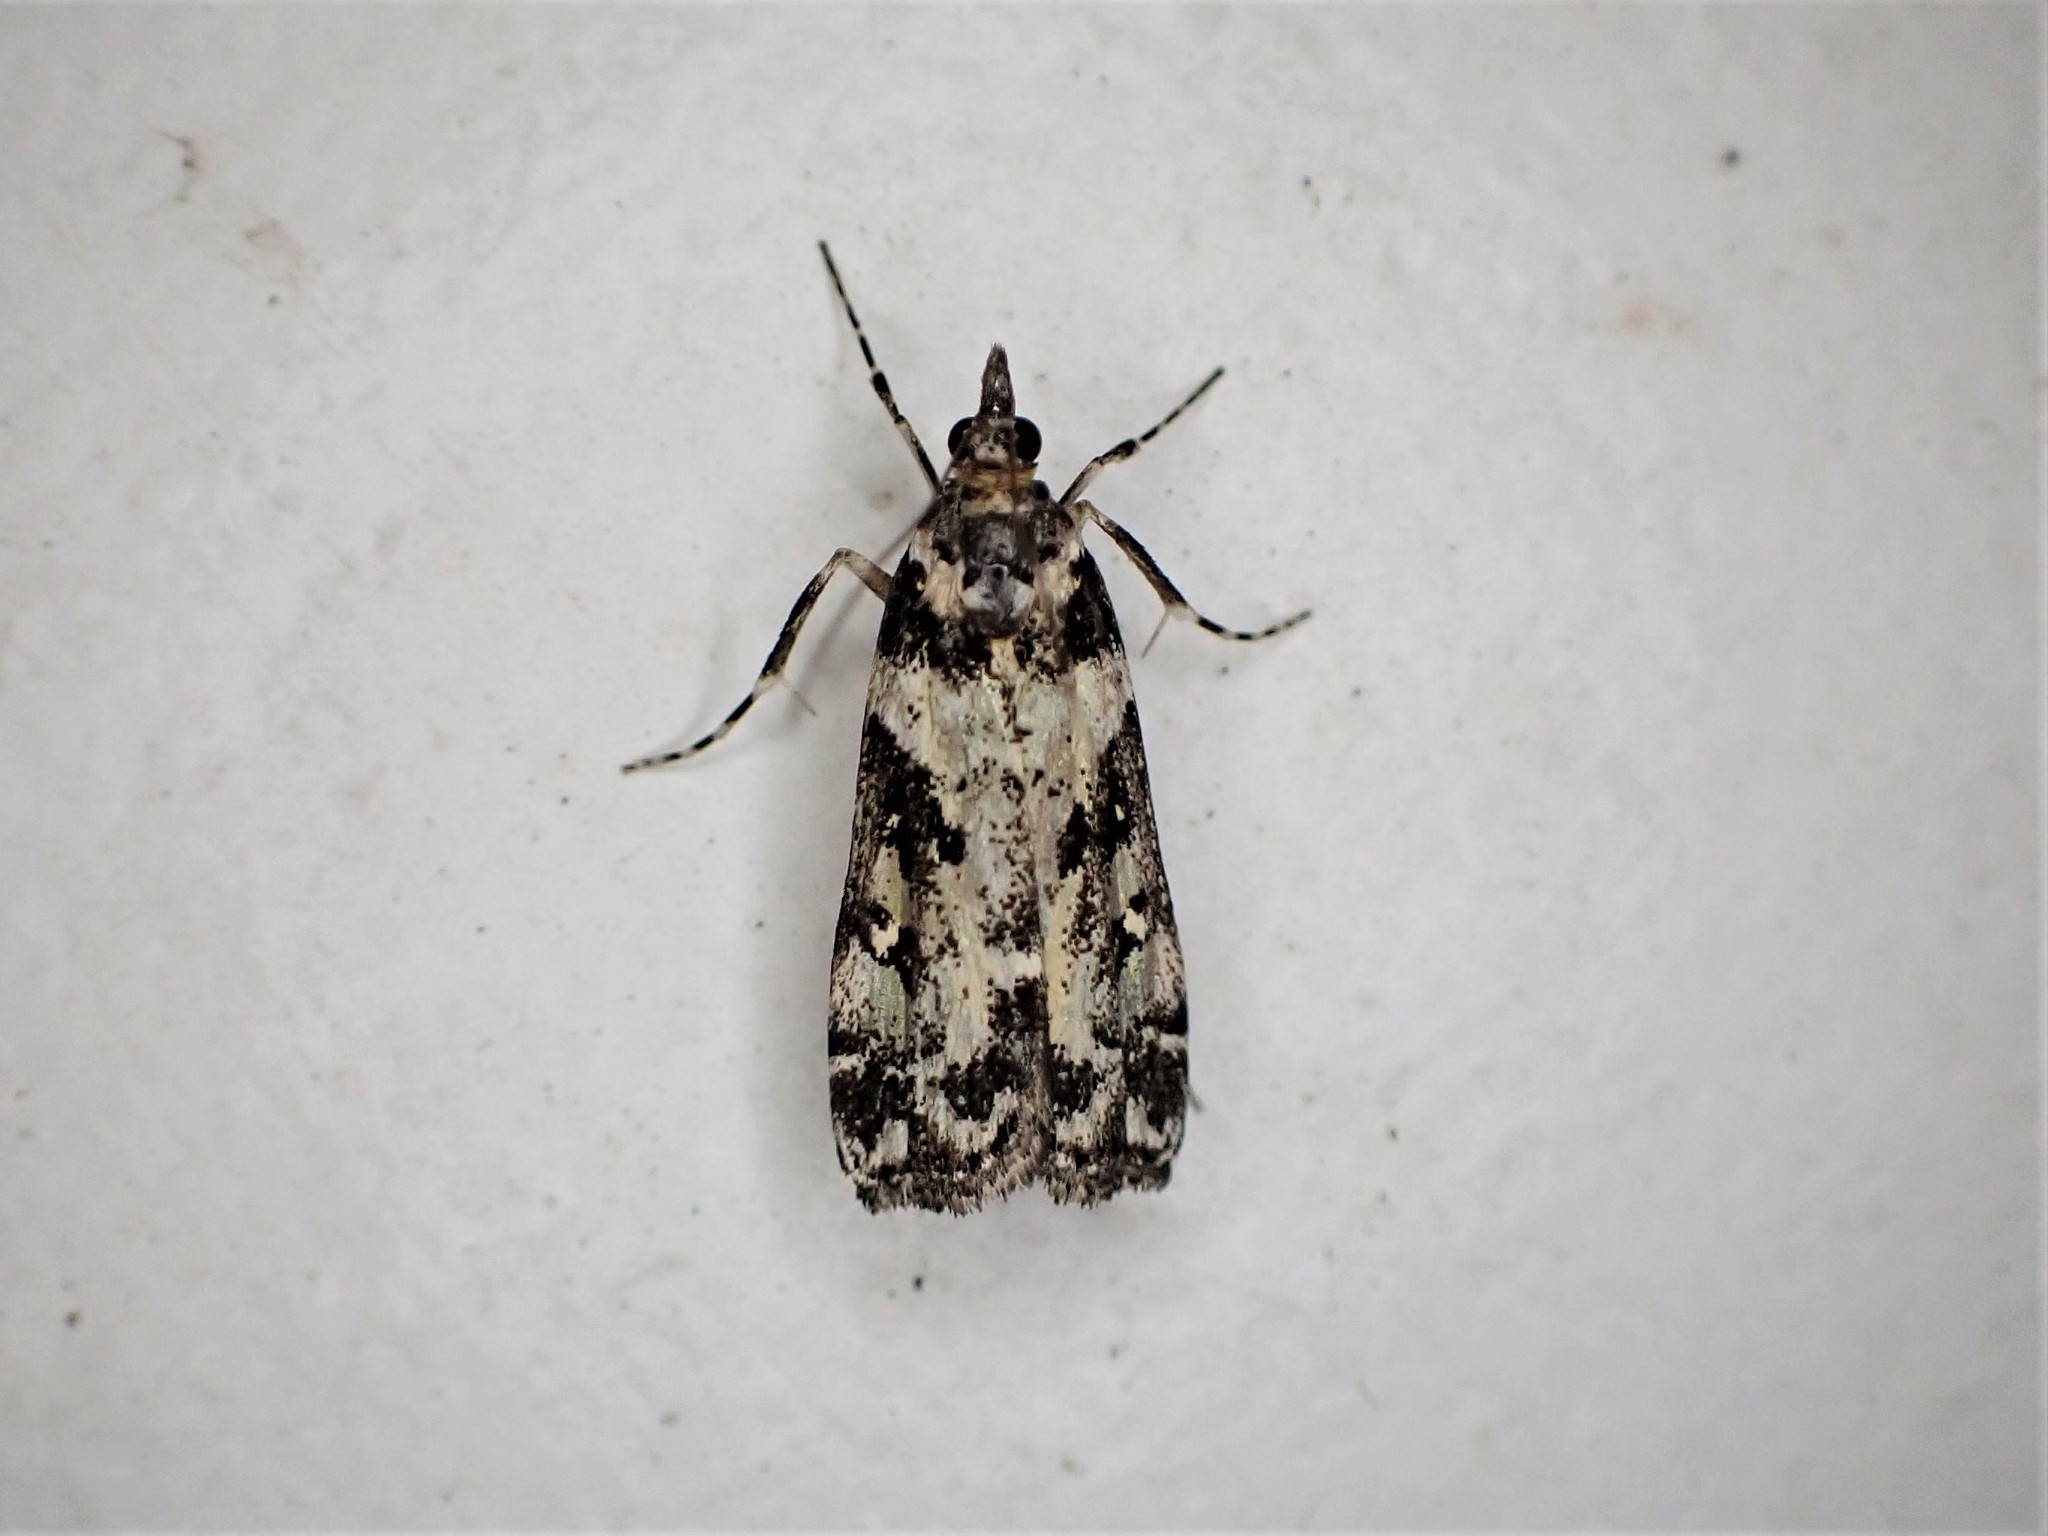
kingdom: Animalia
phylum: Arthropoda
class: Insecta
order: Lepidoptera
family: Crambidae
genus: Eudonia
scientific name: Eudonia diphtheralis
